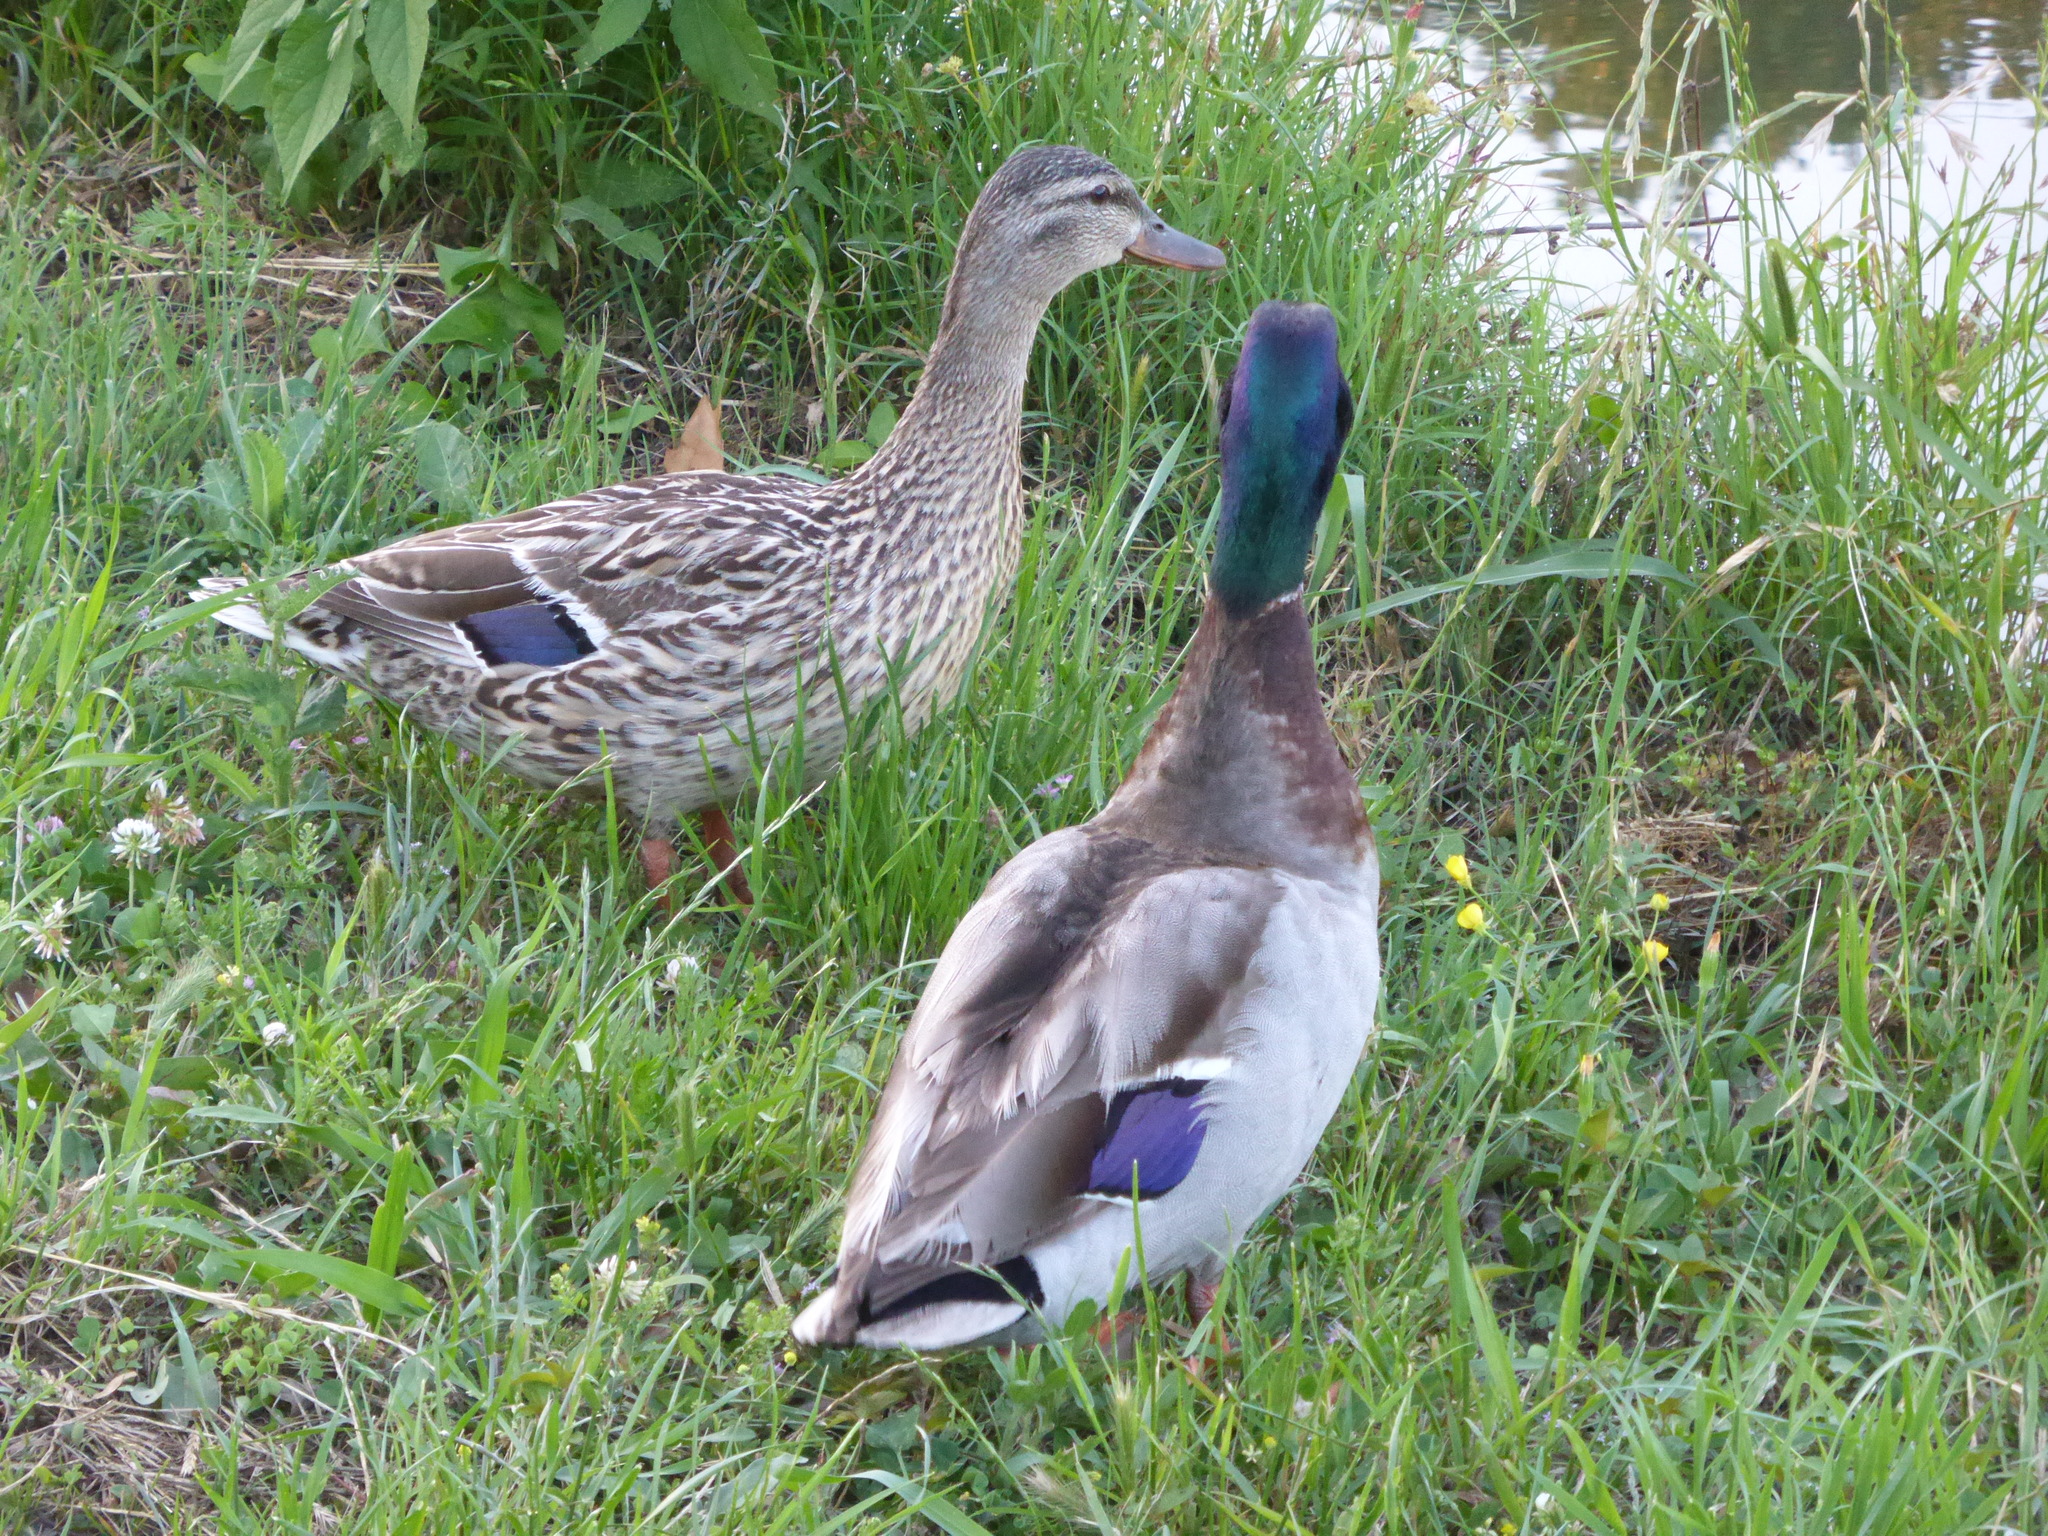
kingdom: Animalia
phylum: Chordata
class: Aves
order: Anseriformes
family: Anatidae
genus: Anas
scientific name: Anas platyrhynchos
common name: Mallard
